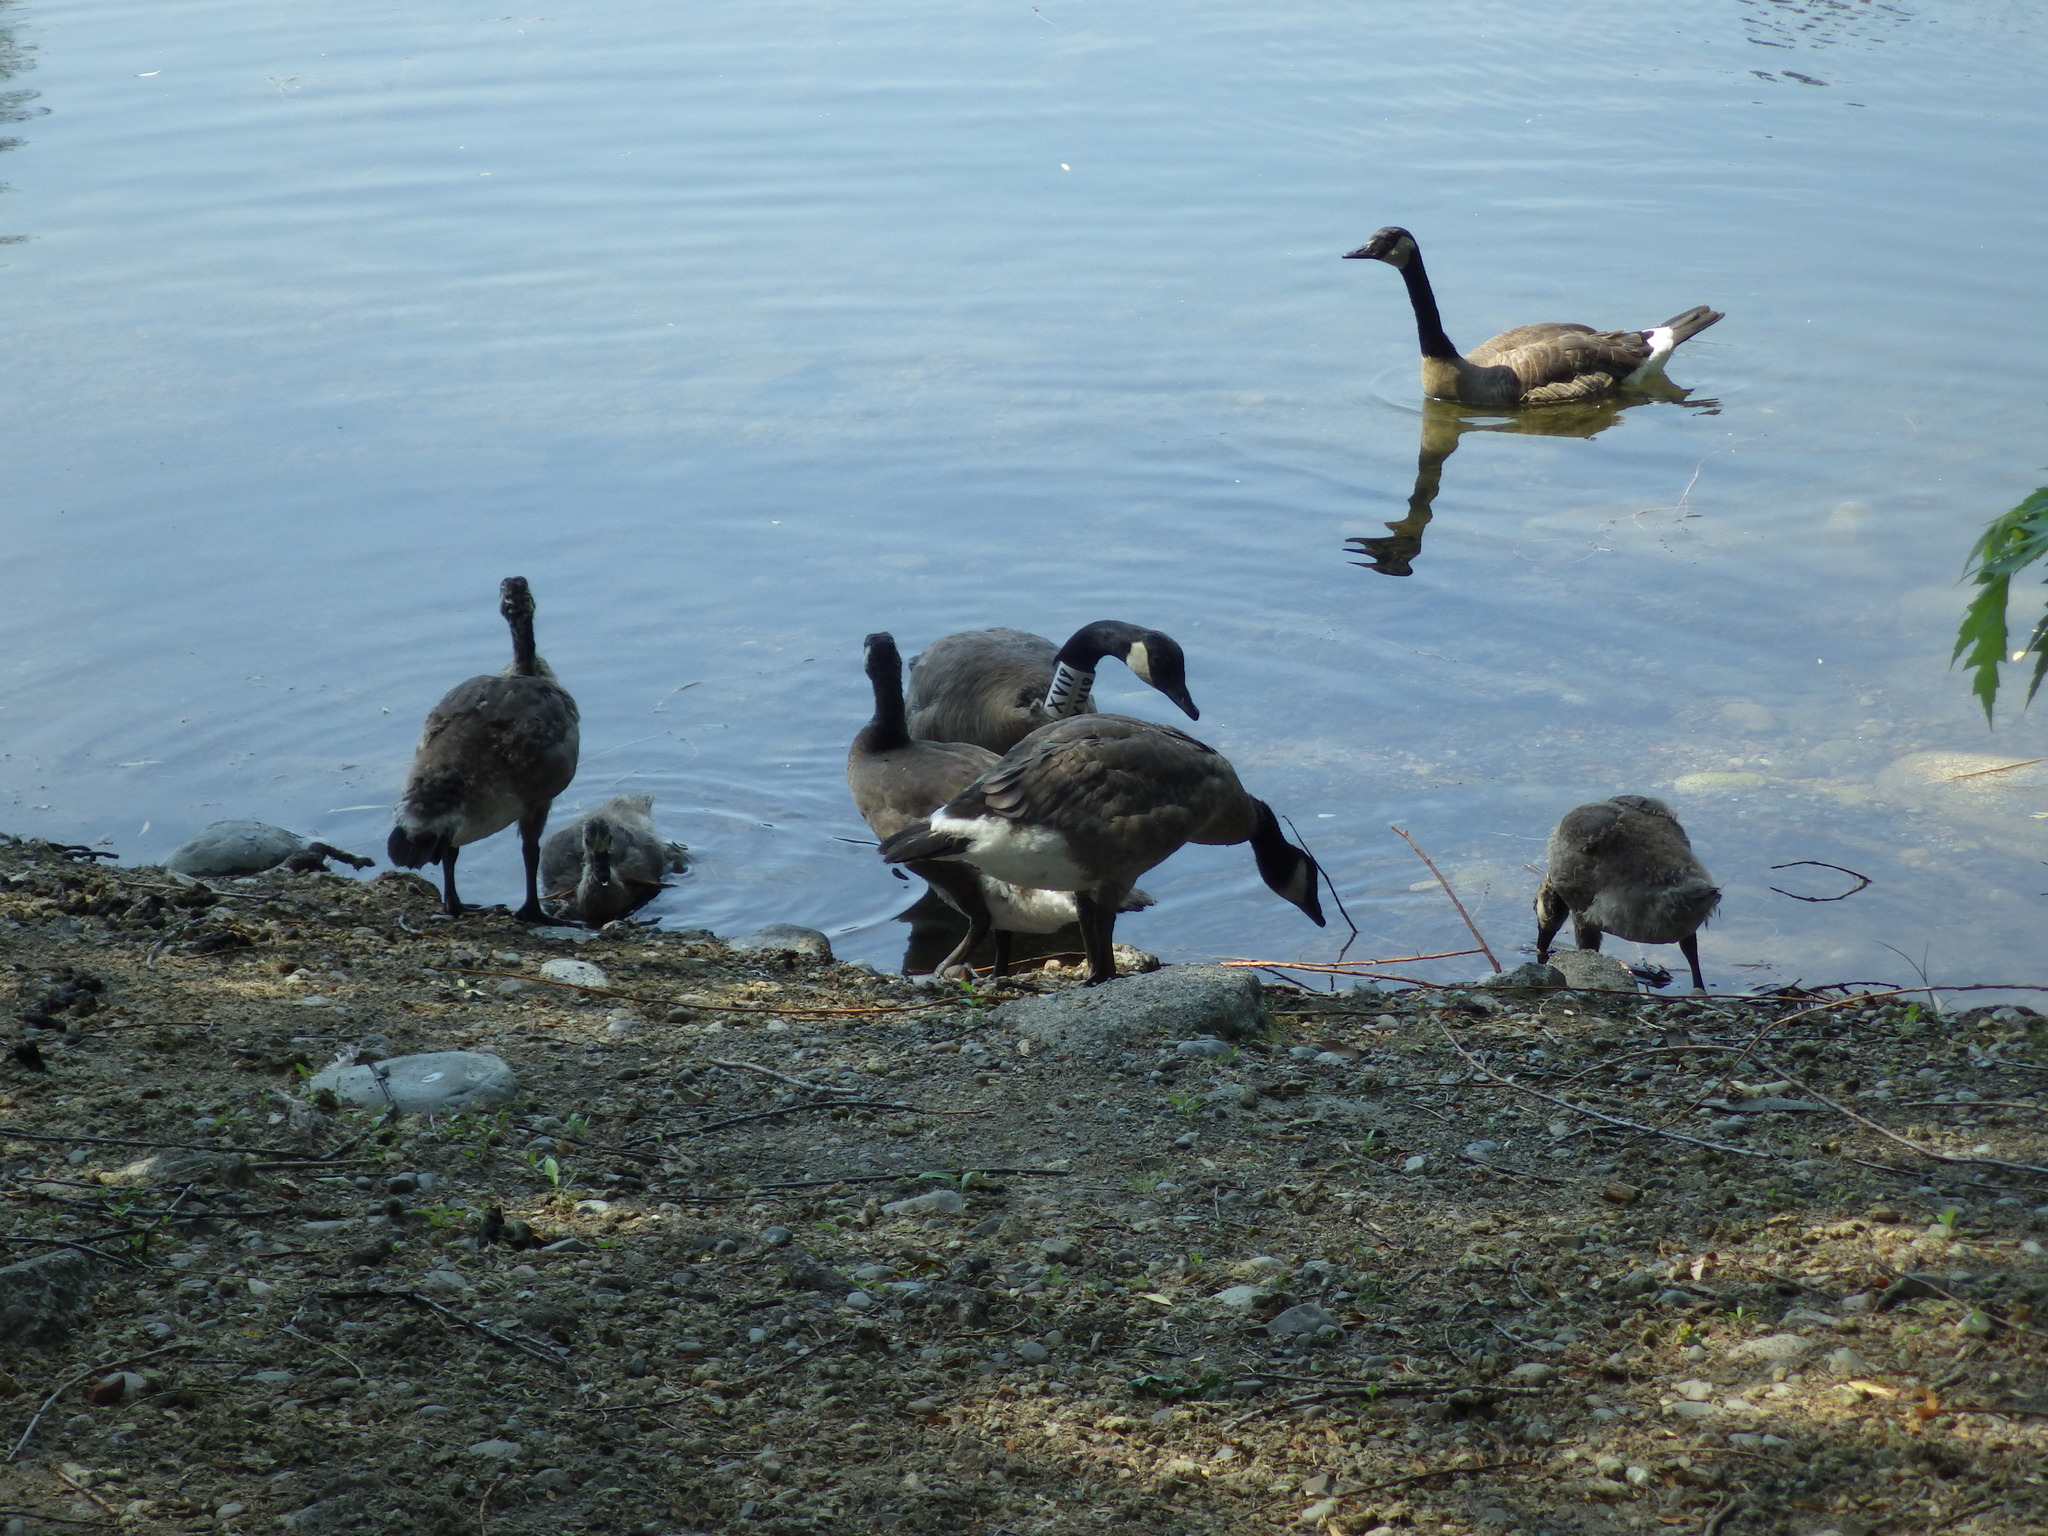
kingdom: Animalia
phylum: Chordata
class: Aves
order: Anseriformes
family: Anatidae
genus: Branta
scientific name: Branta canadensis
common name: Canada goose
